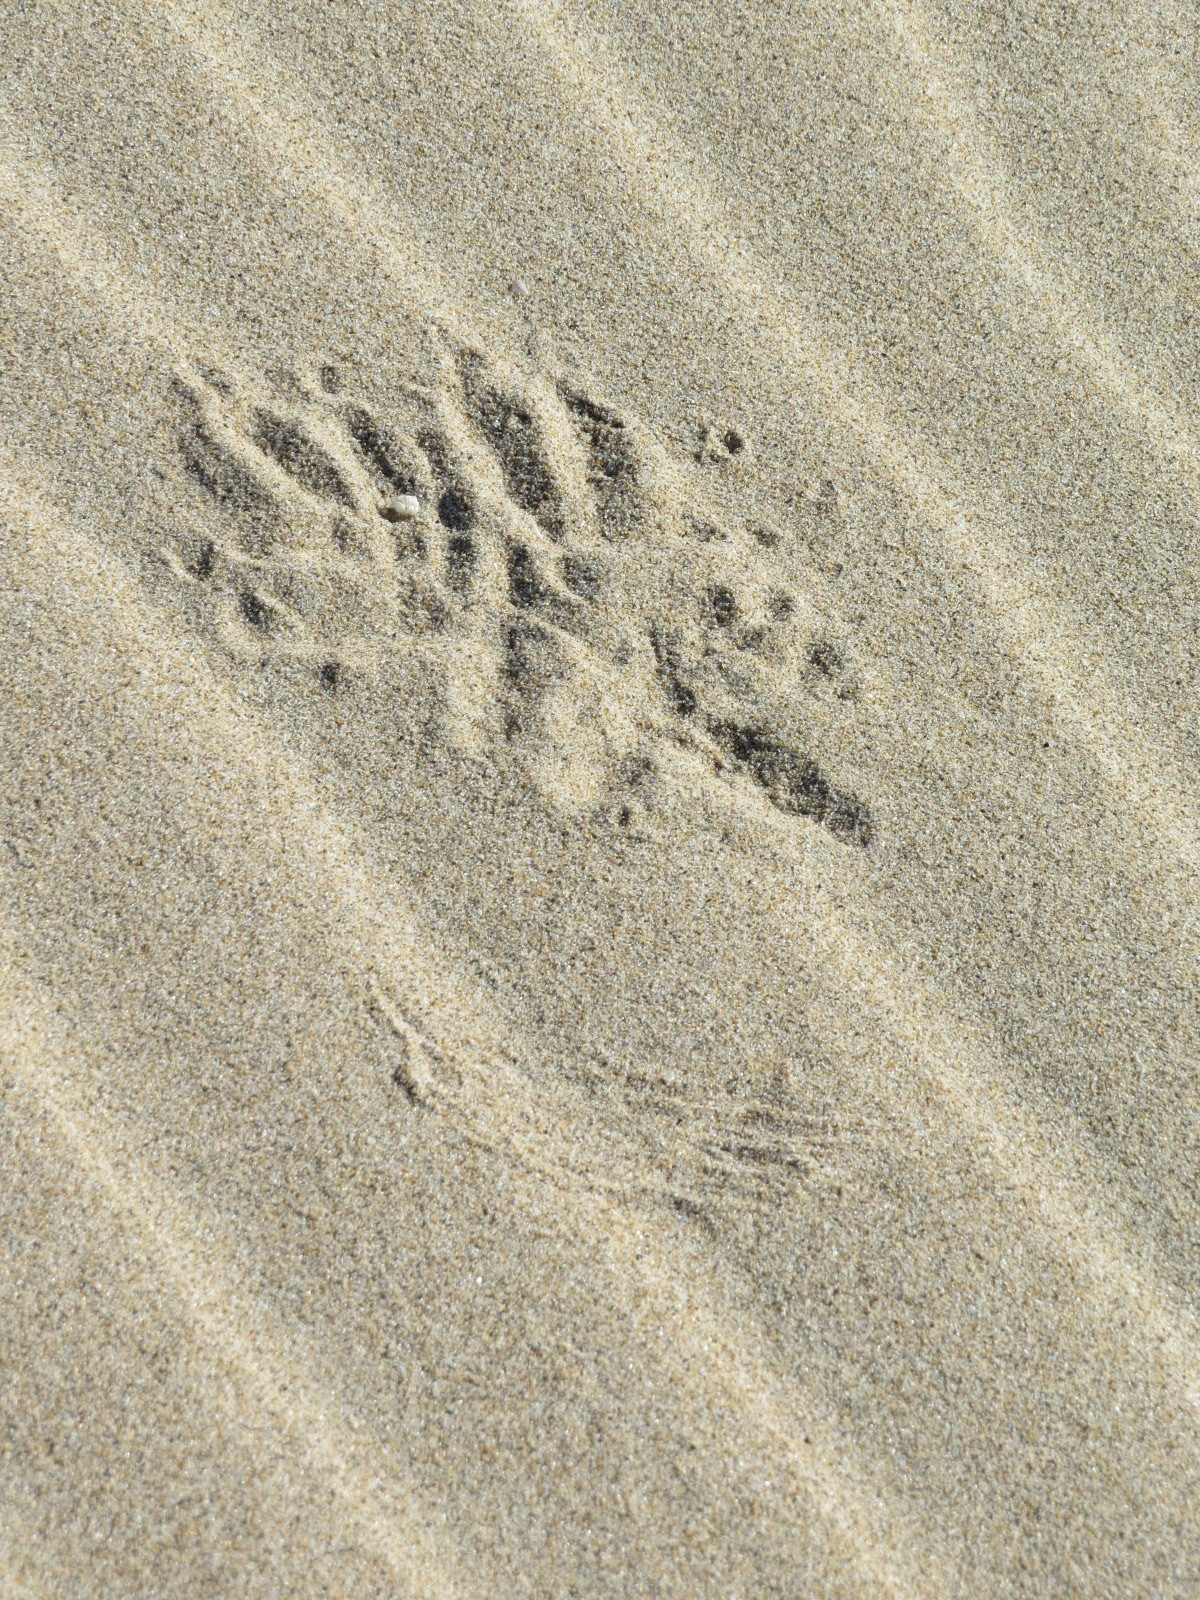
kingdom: Animalia
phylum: Chordata
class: Aves
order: Strigiformes
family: Strigidae
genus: Bubo
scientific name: Bubo virginianus
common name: Great horned owl
